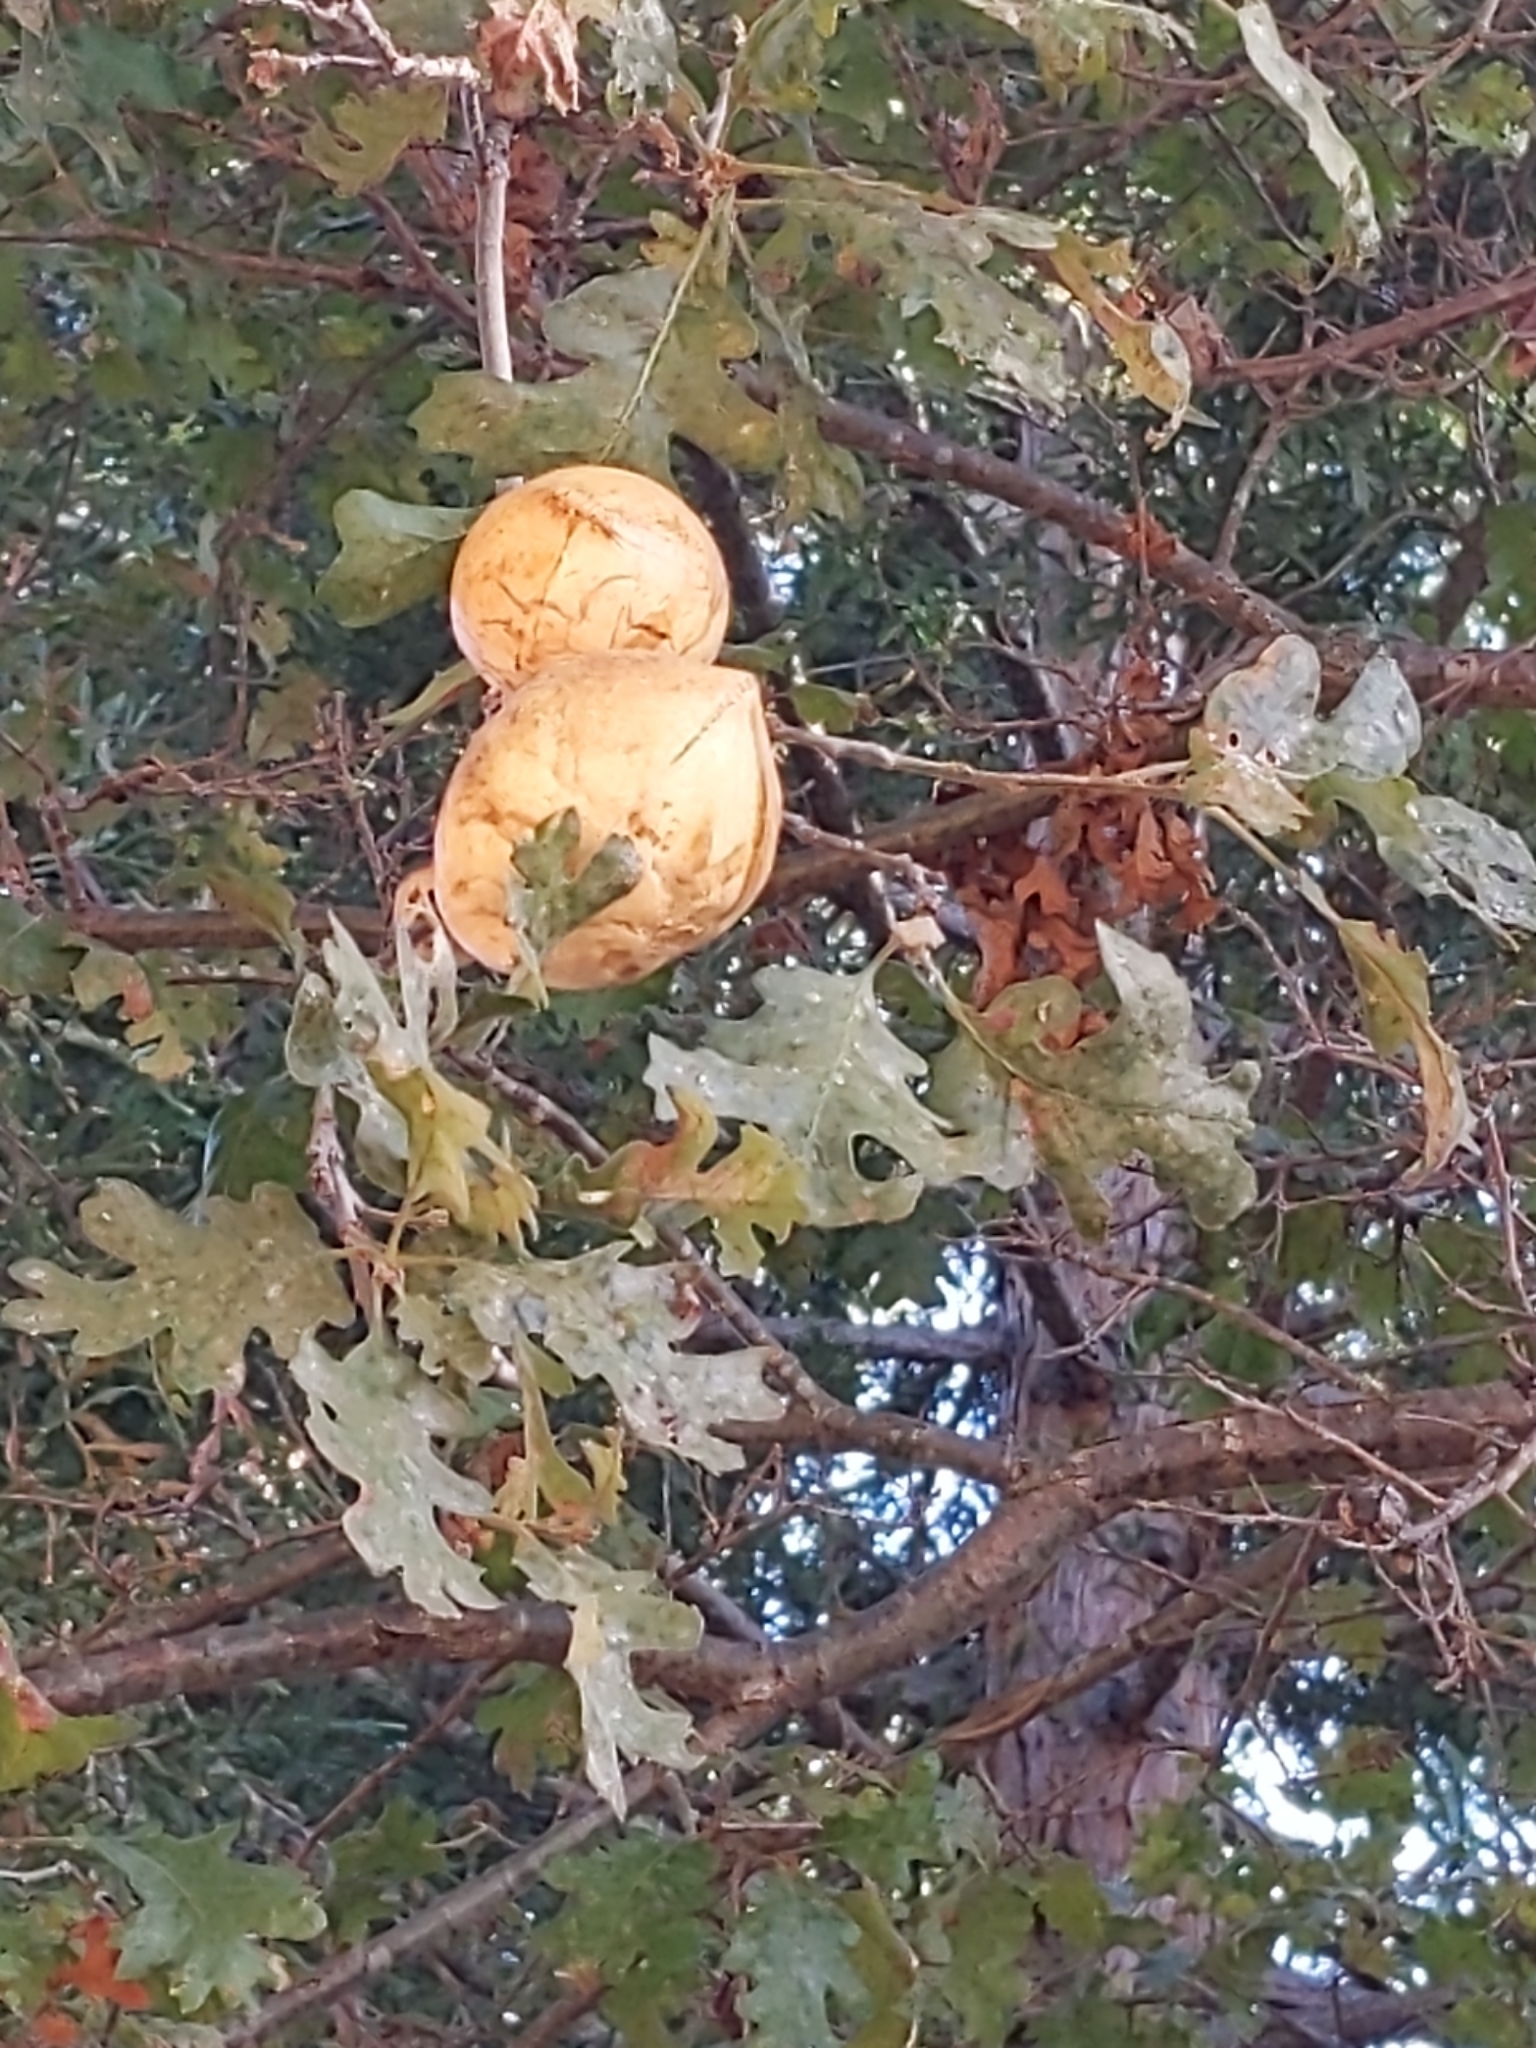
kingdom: Animalia
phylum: Arthropoda
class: Insecta
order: Hymenoptera
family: Cynipidae
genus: Andricus
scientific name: Andricus quercuscalifornicus
